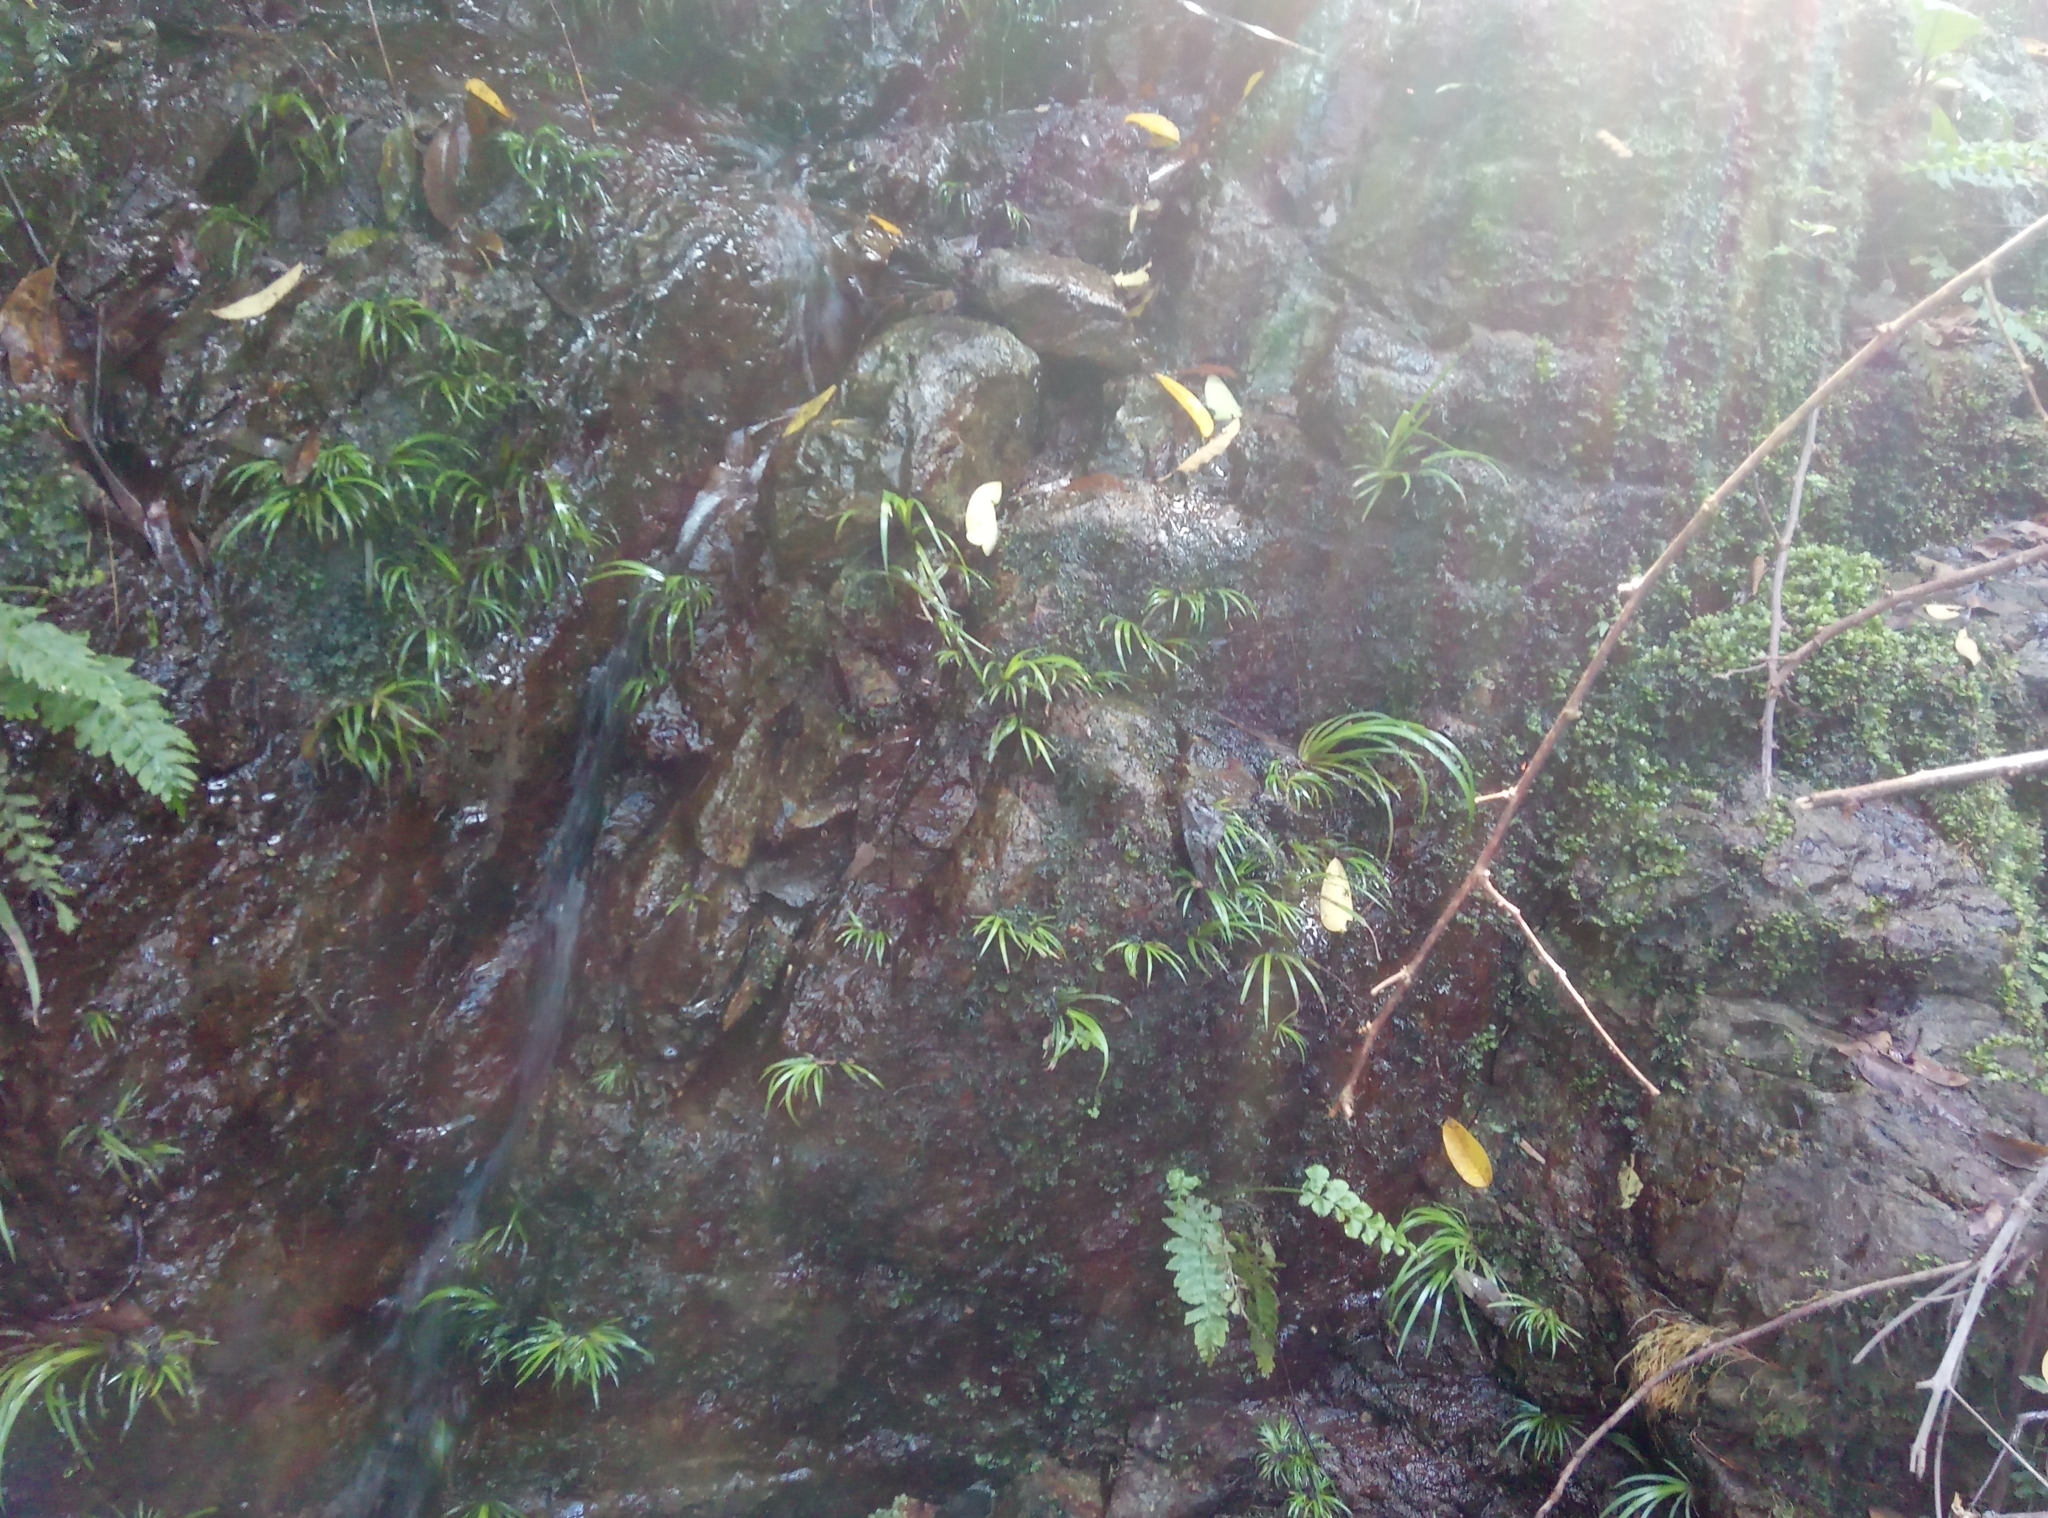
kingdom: Plantae
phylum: Tracheophyta
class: Liliopsida
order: Acorales
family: Acoraceae
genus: Acorus
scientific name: Acorus gramineus
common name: Slender sweet-flag
